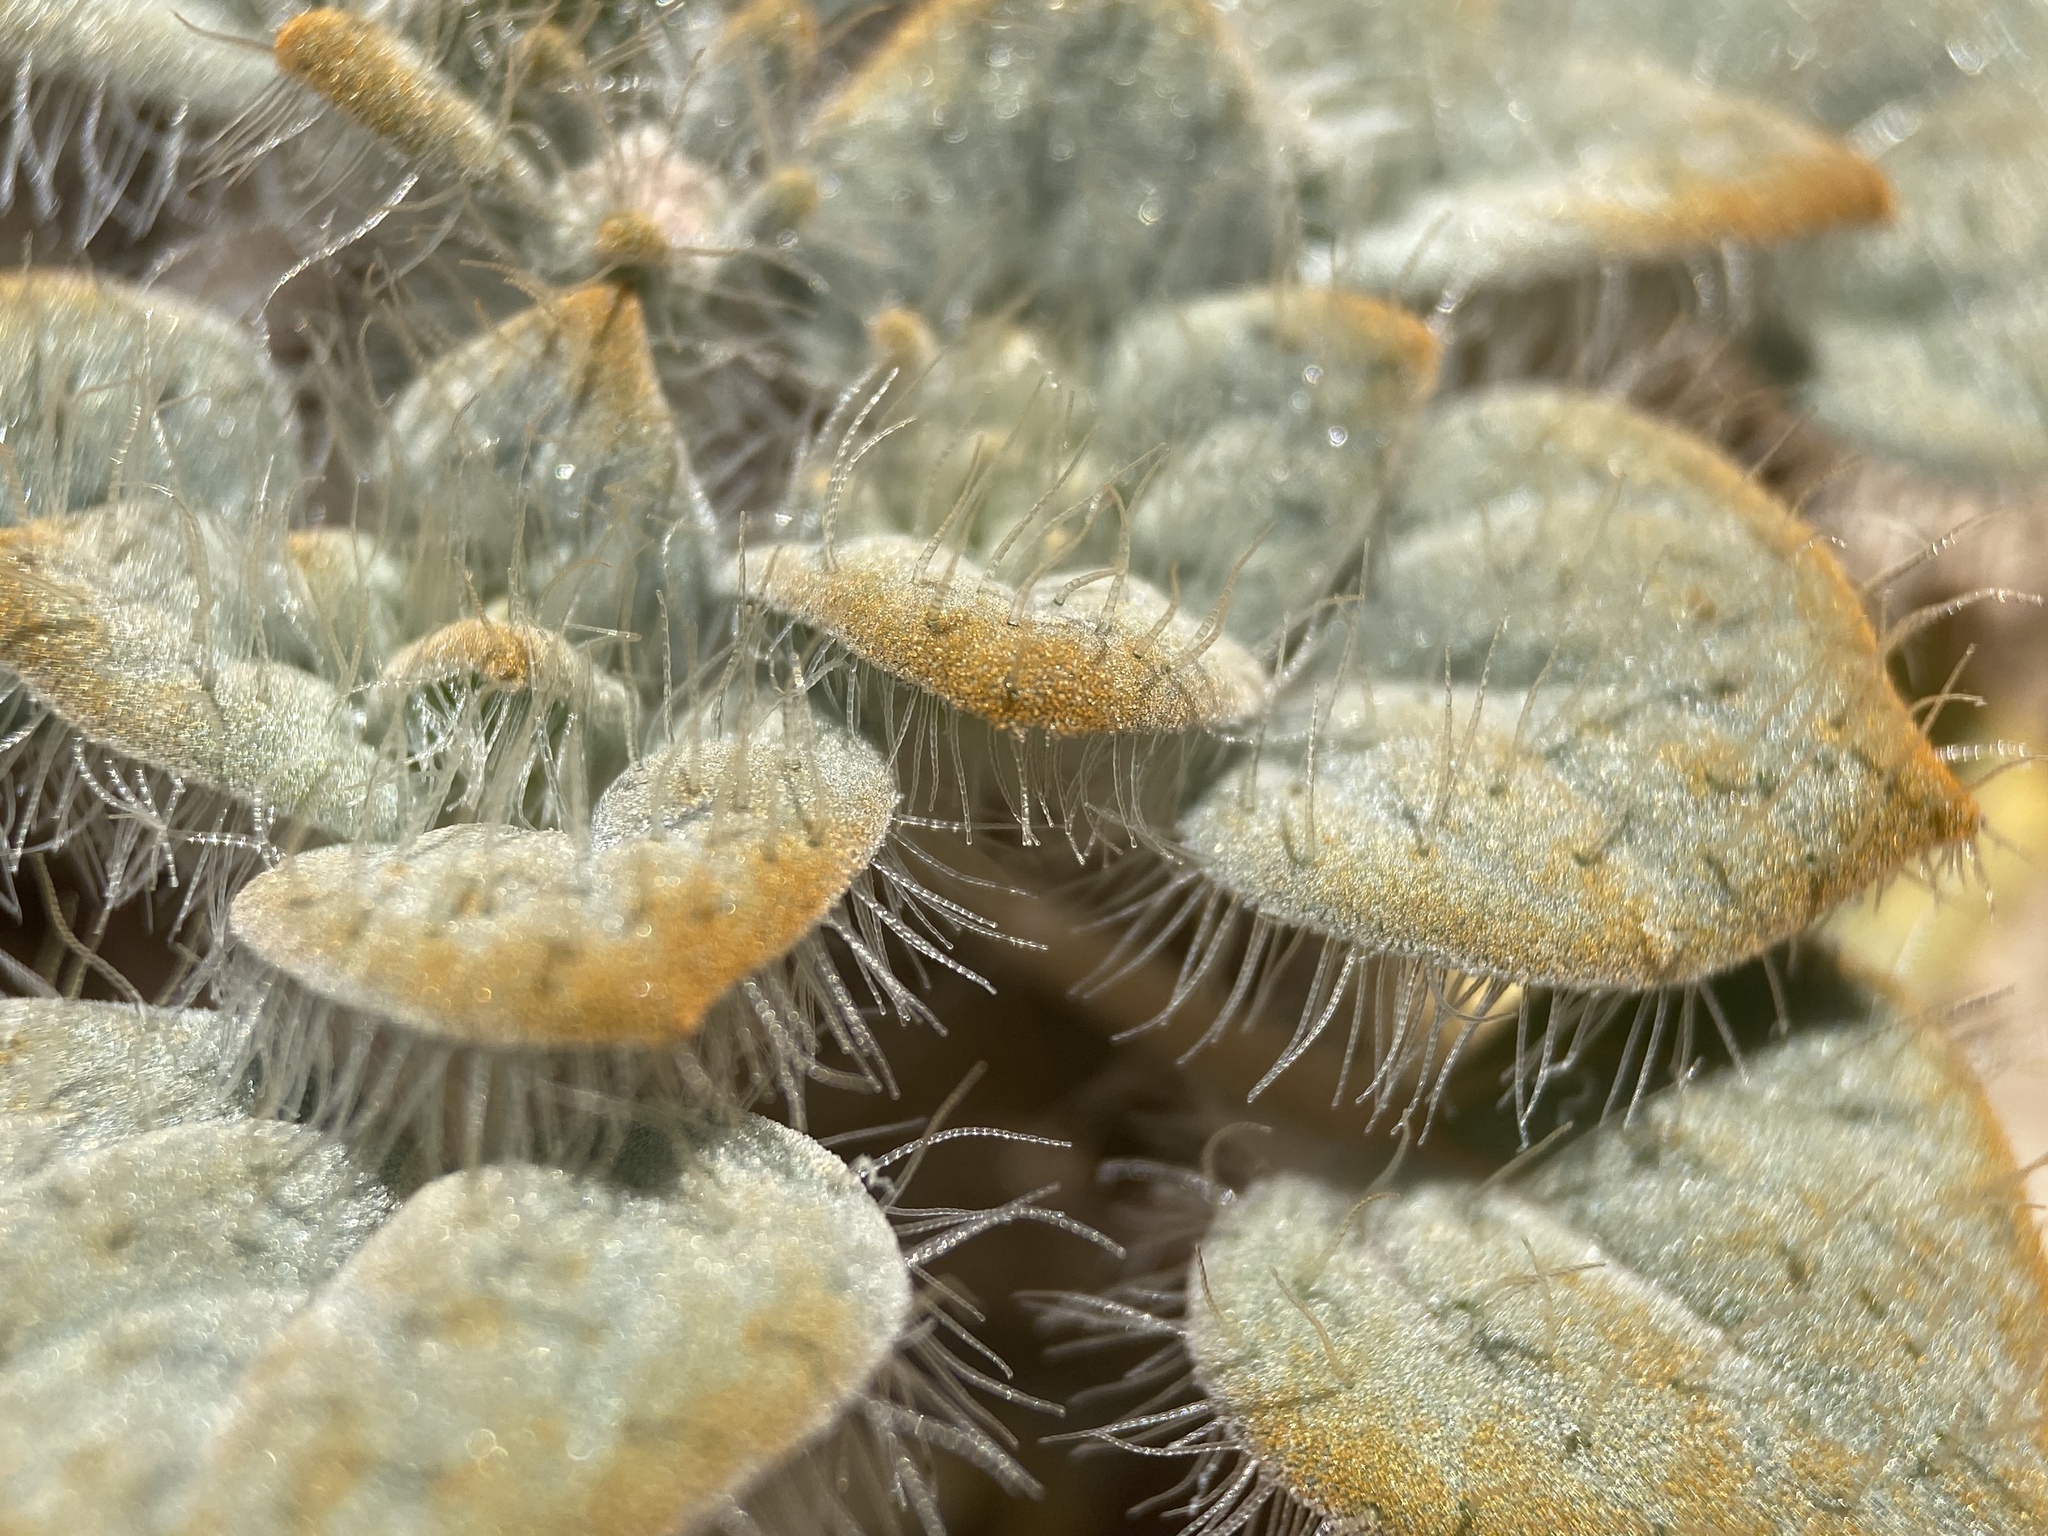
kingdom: Plantae
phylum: Tracheophyta
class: Magnoliopsida
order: Asterales
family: Asteraceae
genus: Psathyrotes
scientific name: Psathyrotes pilifera
